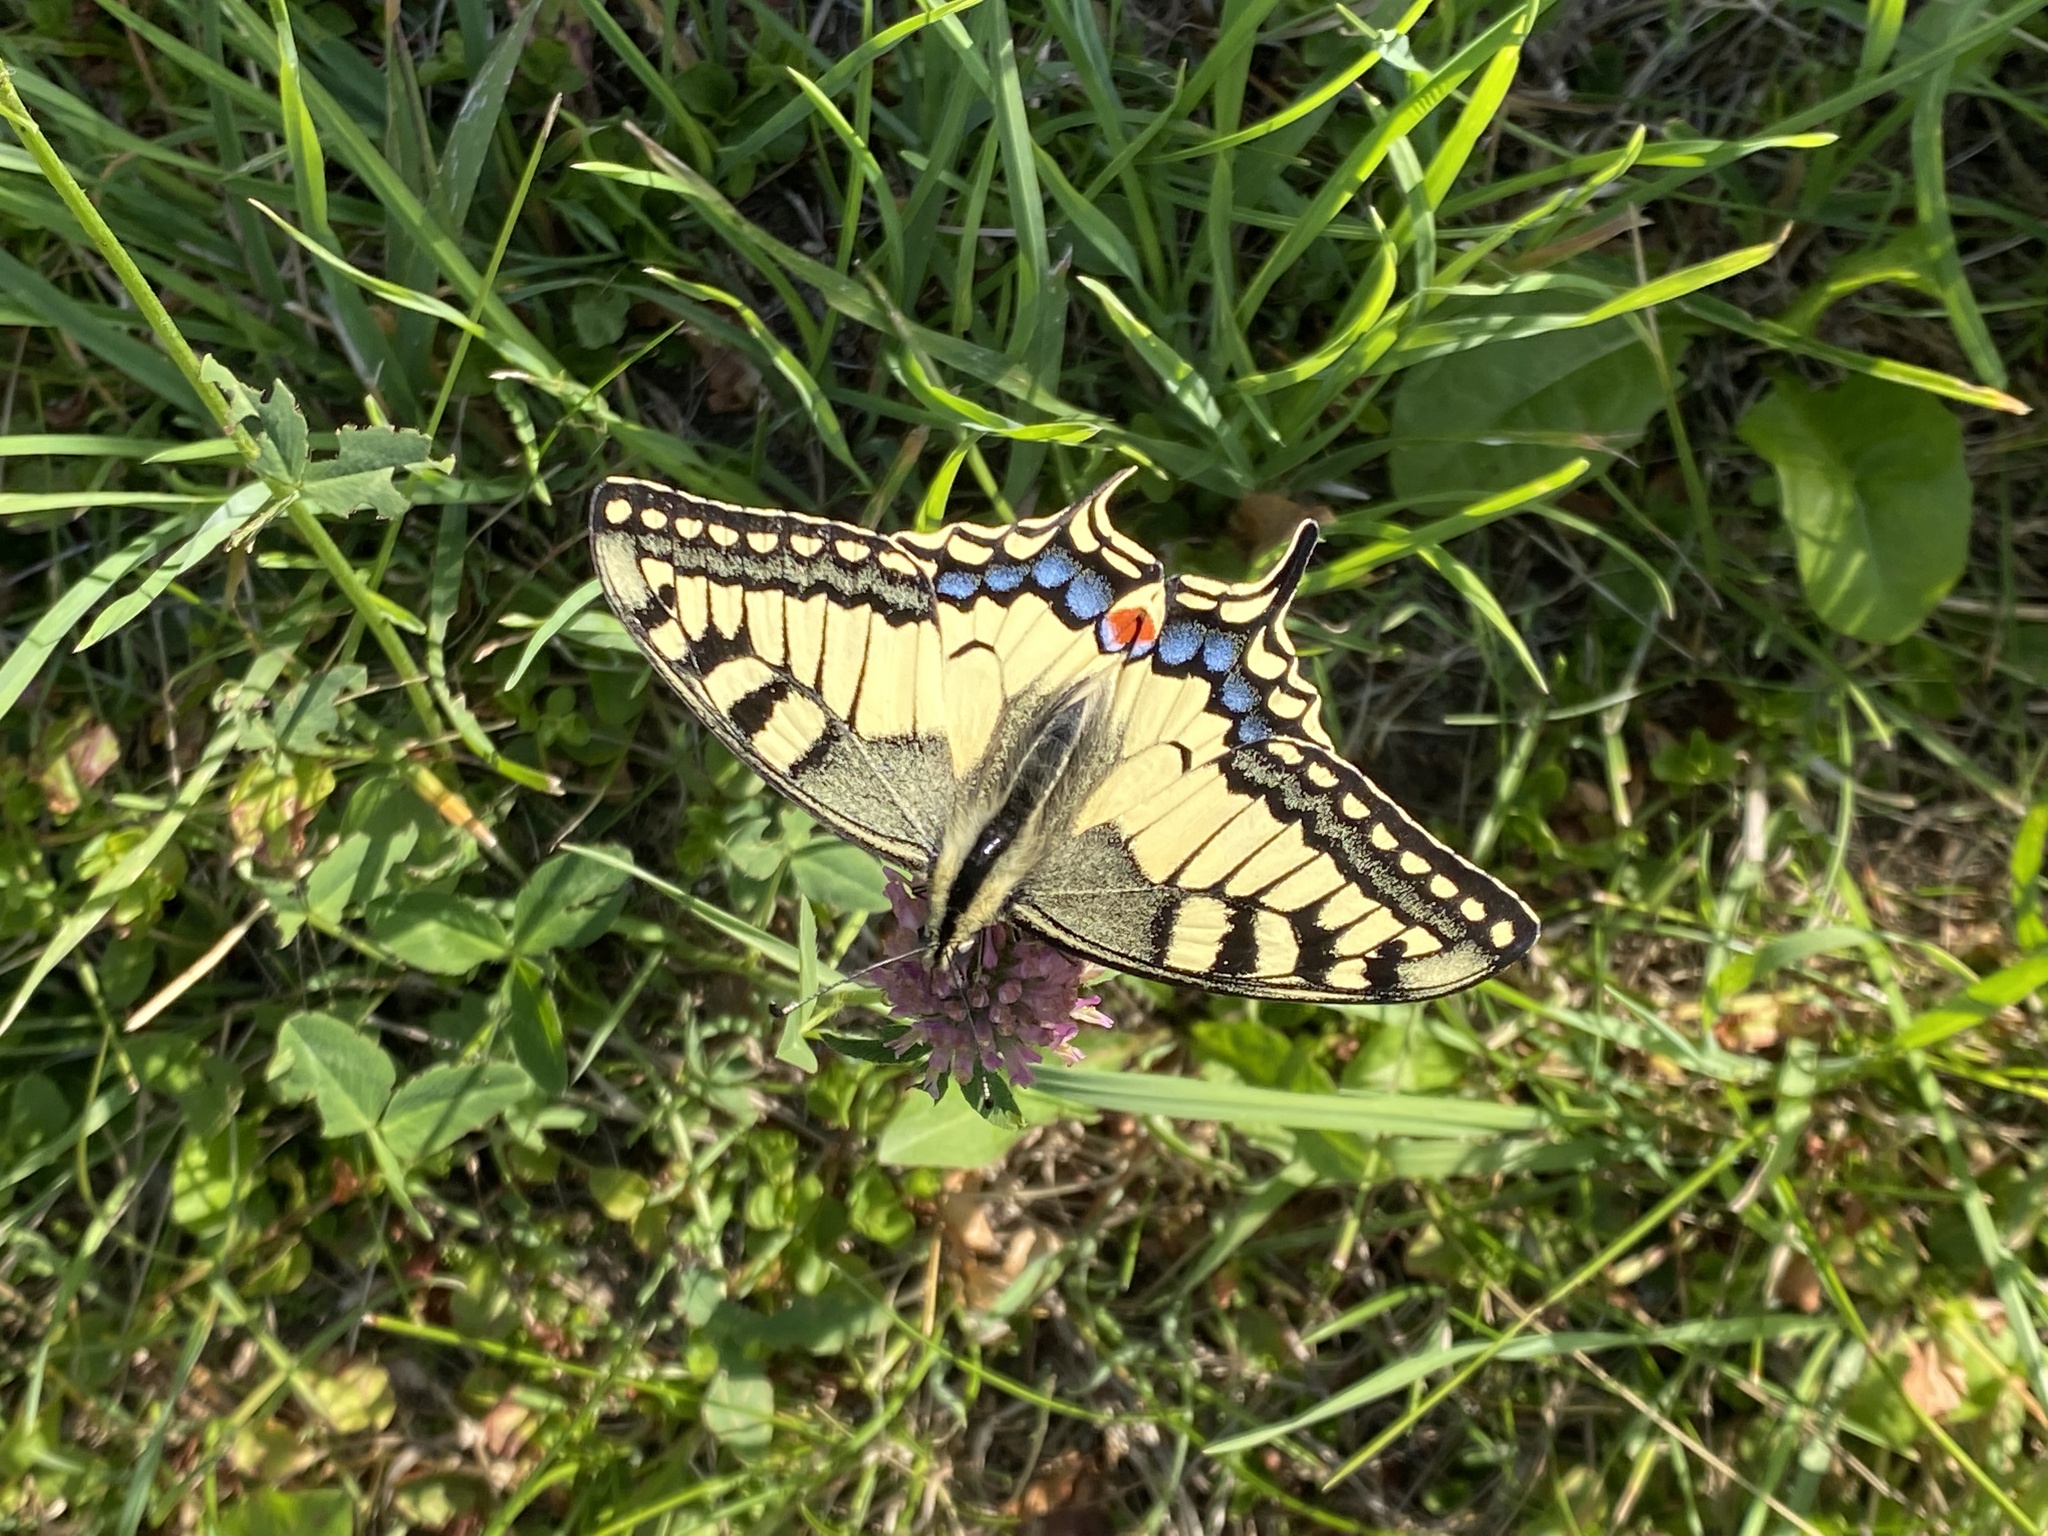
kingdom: Animalia
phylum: Arthropoda
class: Insecta
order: Lepidoptera
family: Papilionidae
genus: Papilio
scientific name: Papilio machaon
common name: Swallowtail
